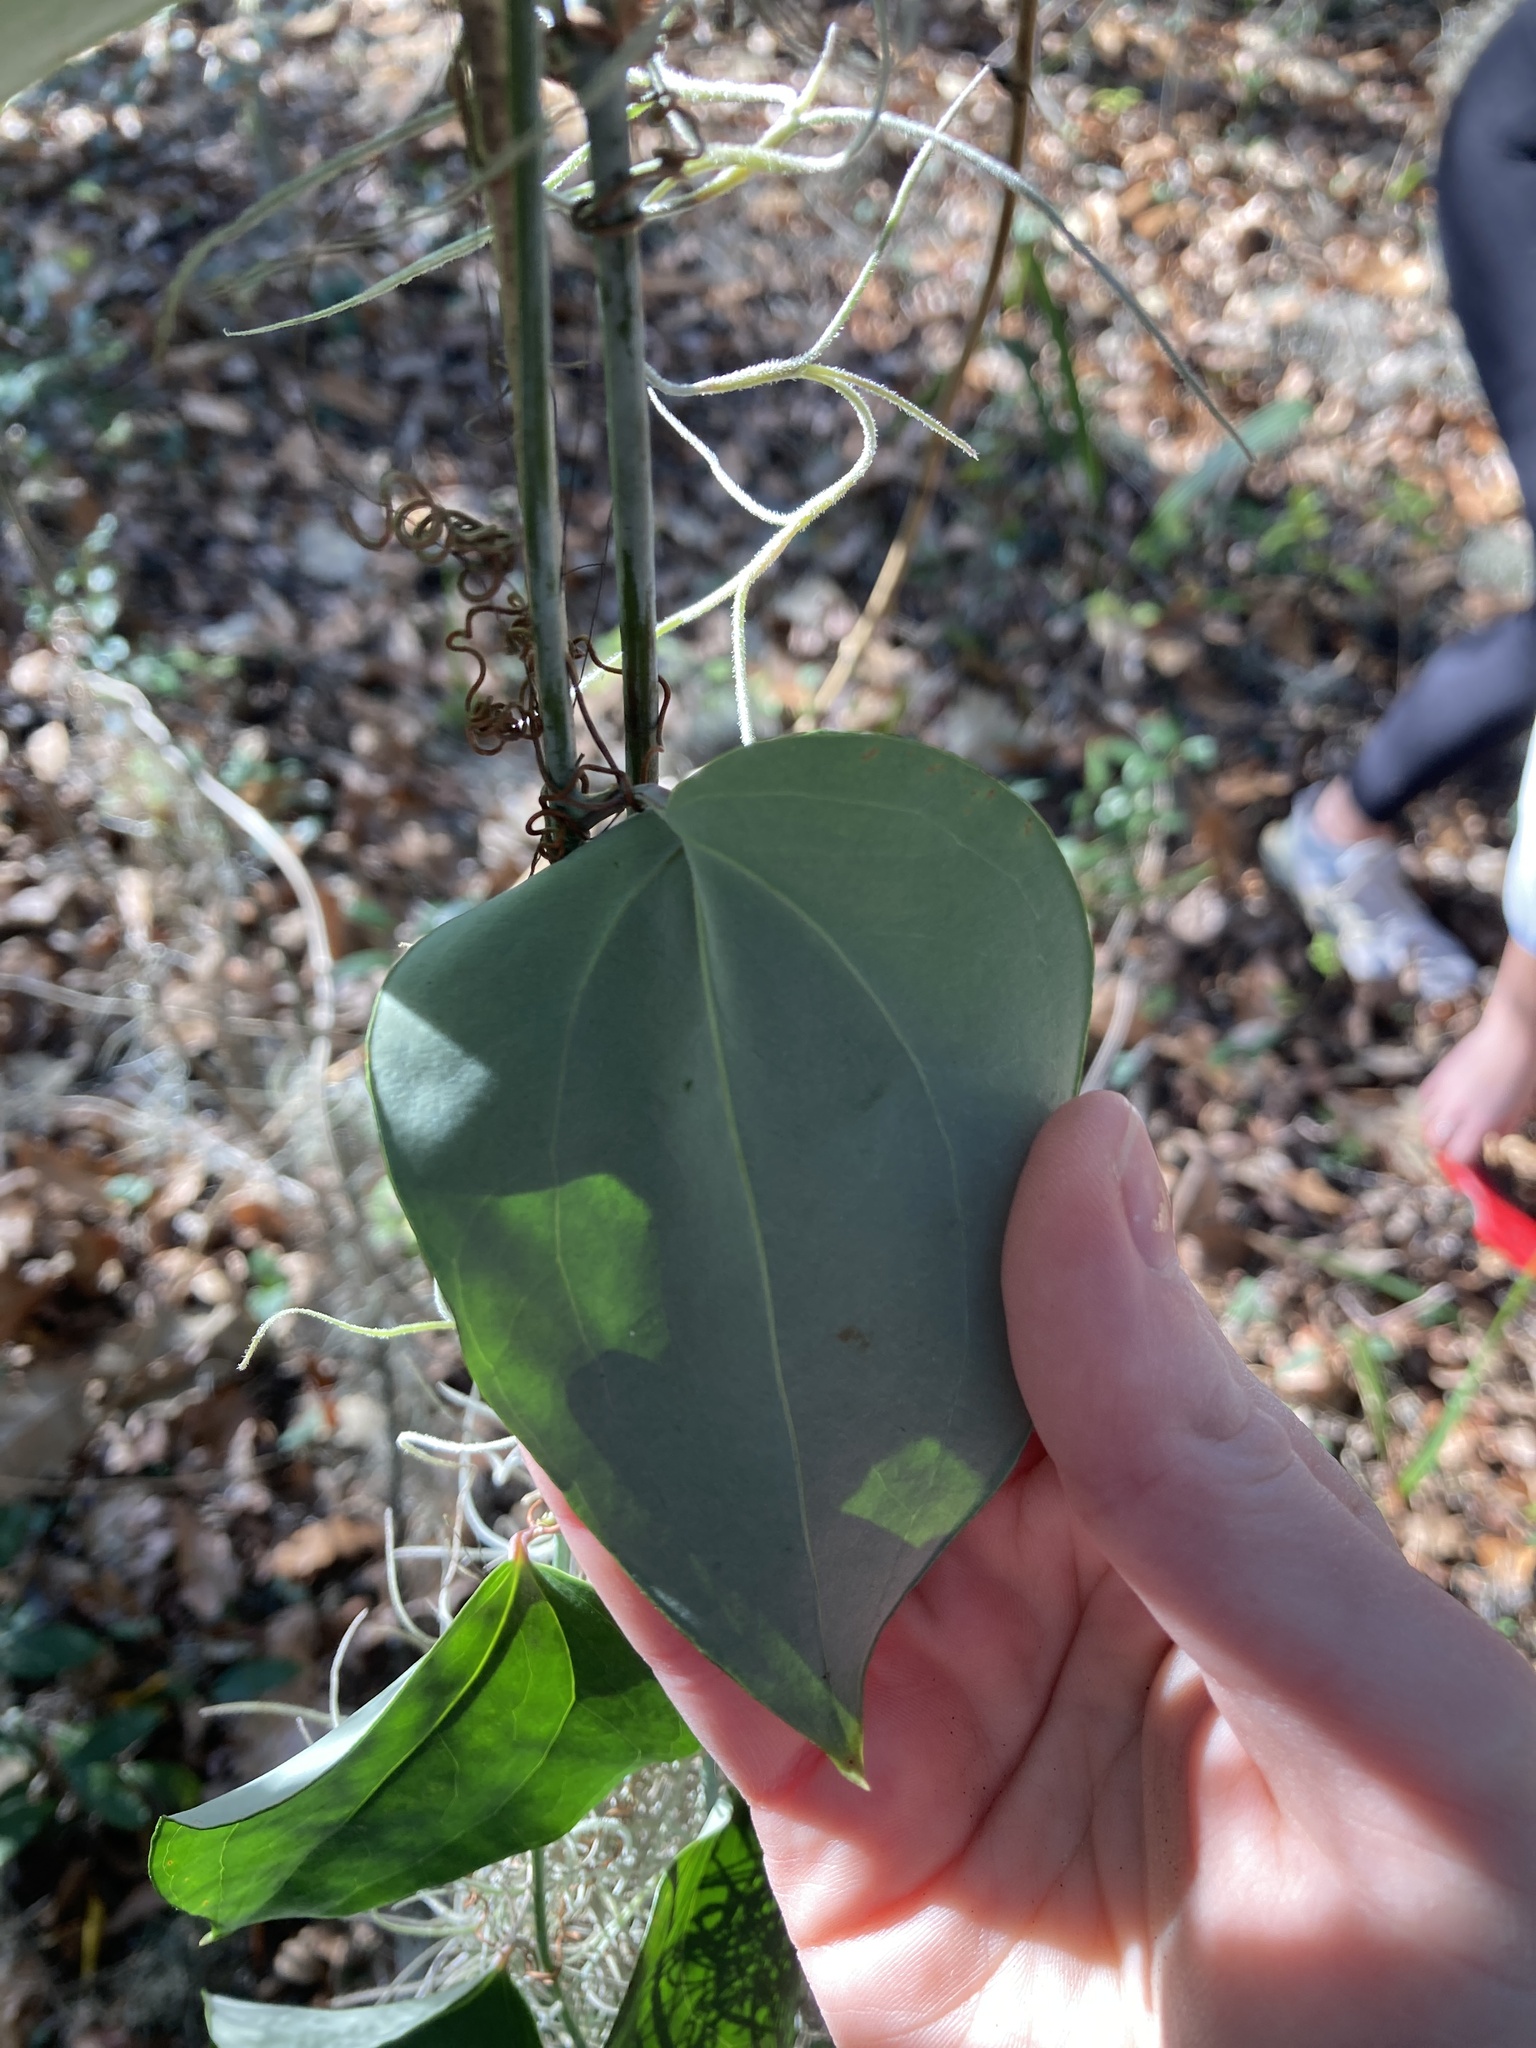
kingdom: Plantae
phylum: Tracheophyta
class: Liliopsida
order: Liliales
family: Smilacaceae
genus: Smilax
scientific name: Smilax glauca
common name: Cat greenbrier
